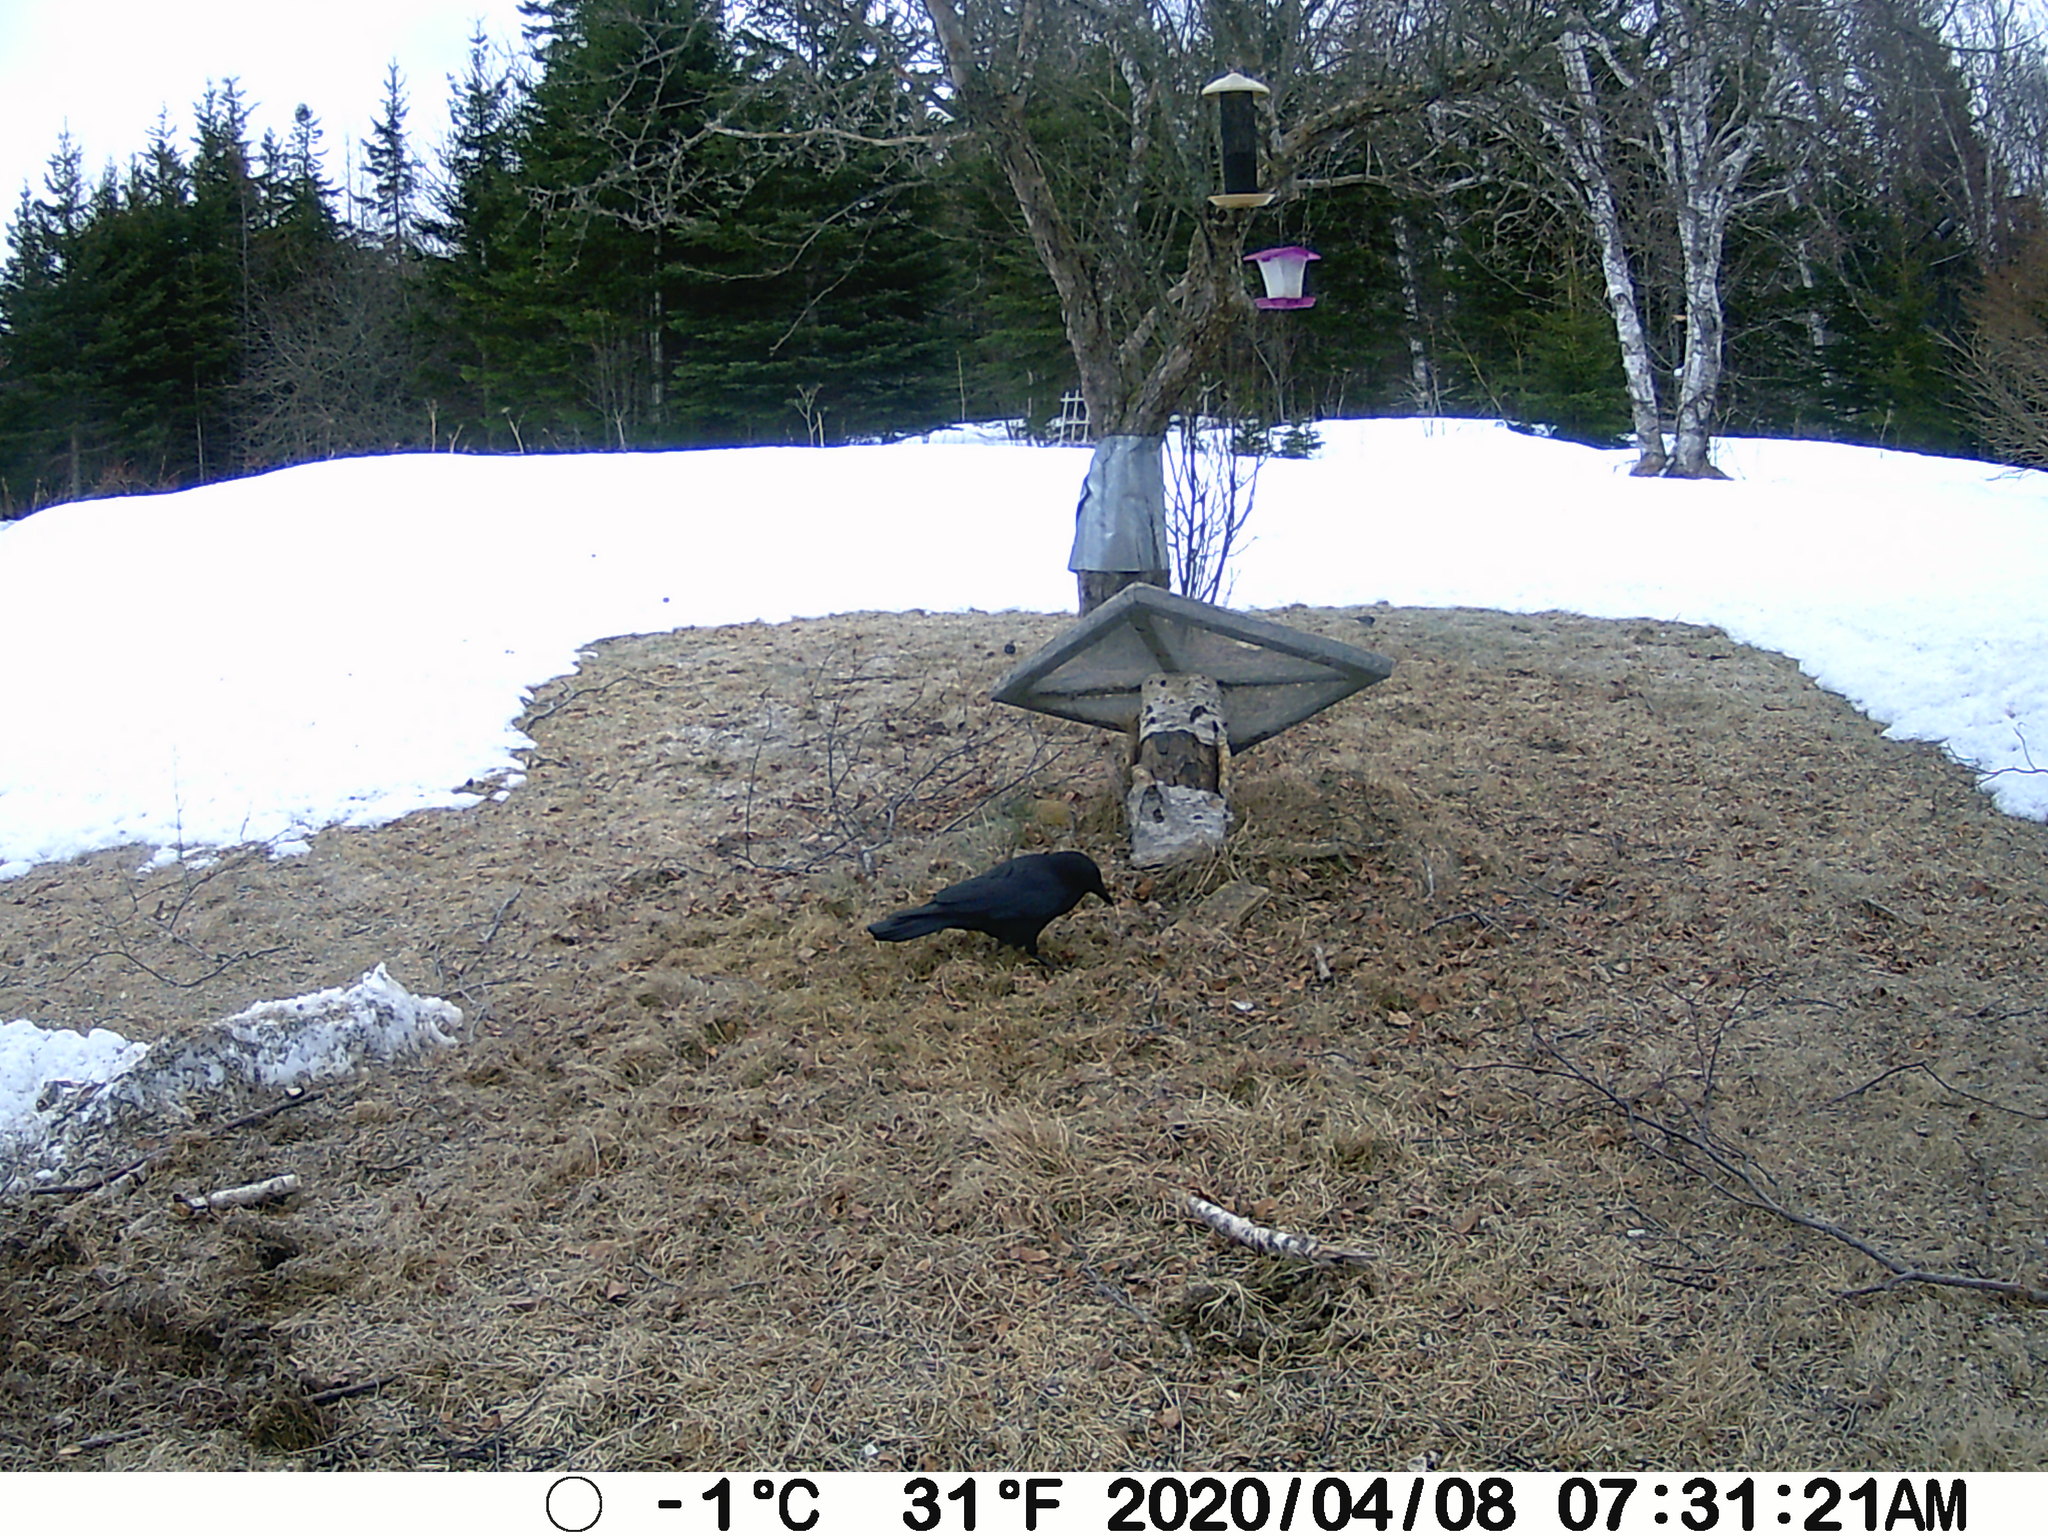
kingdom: Animalia
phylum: Chordata
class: Aves
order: Passeriformes
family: Corvidae
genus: Corvus
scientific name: Corvus brachyrhynchos
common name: American crow
